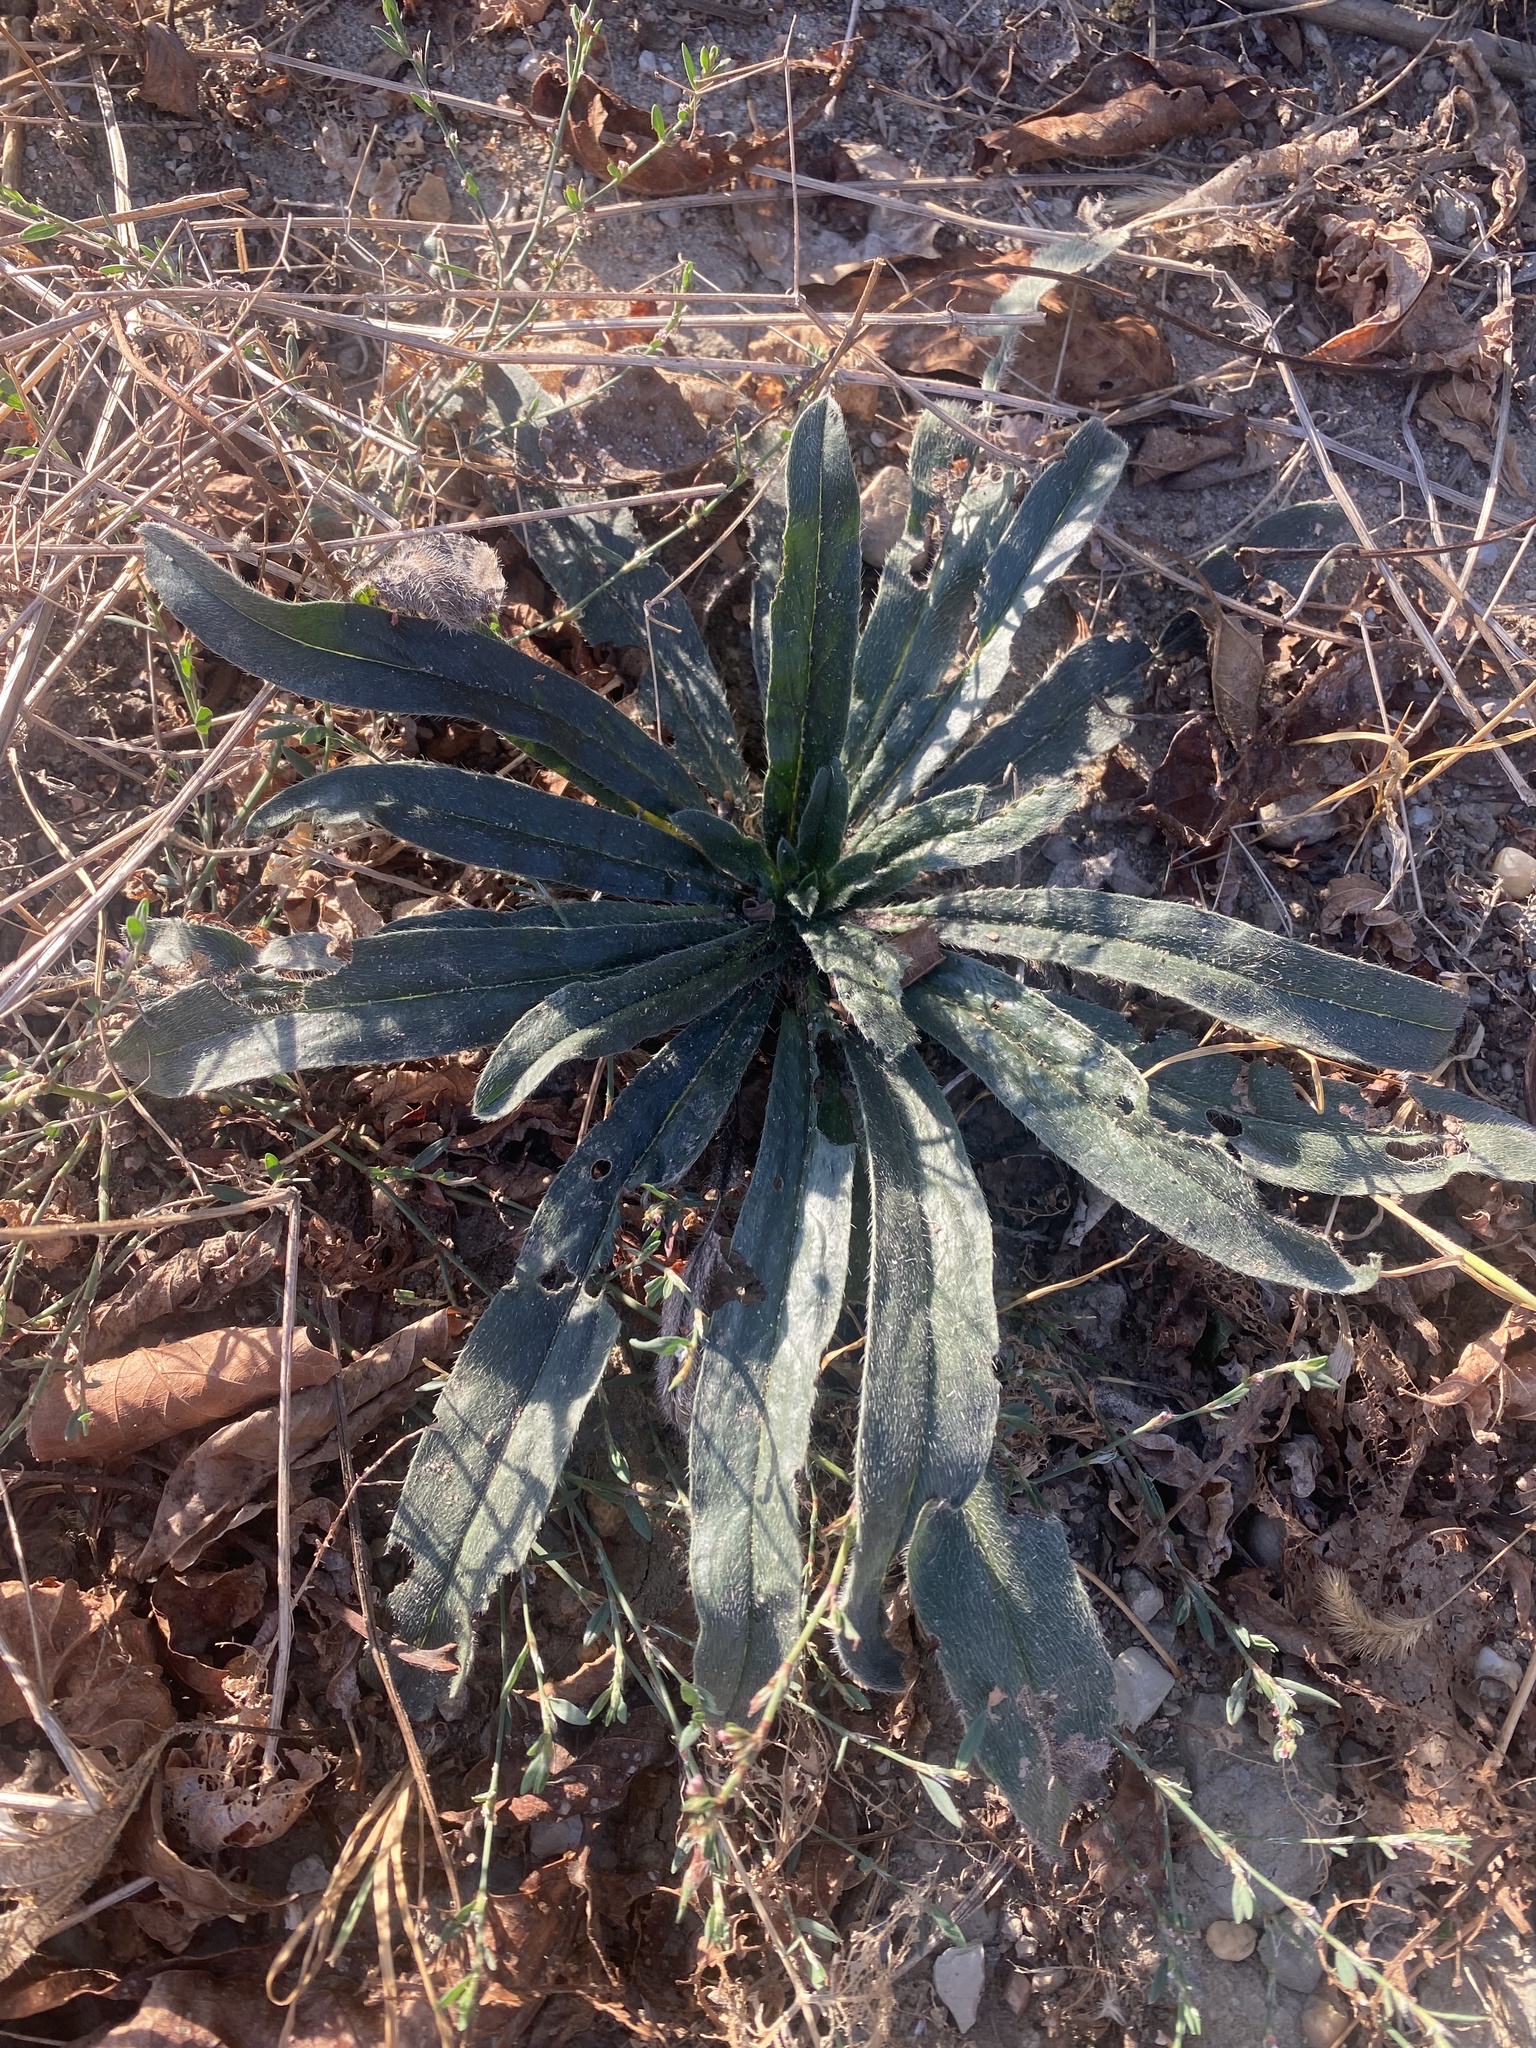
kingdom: Plantae
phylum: Tracheophyta
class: Magnoliopsida
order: Boraginales
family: Boraginaceae
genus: Echium
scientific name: Echium vulgare
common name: Common viper's bugloss
